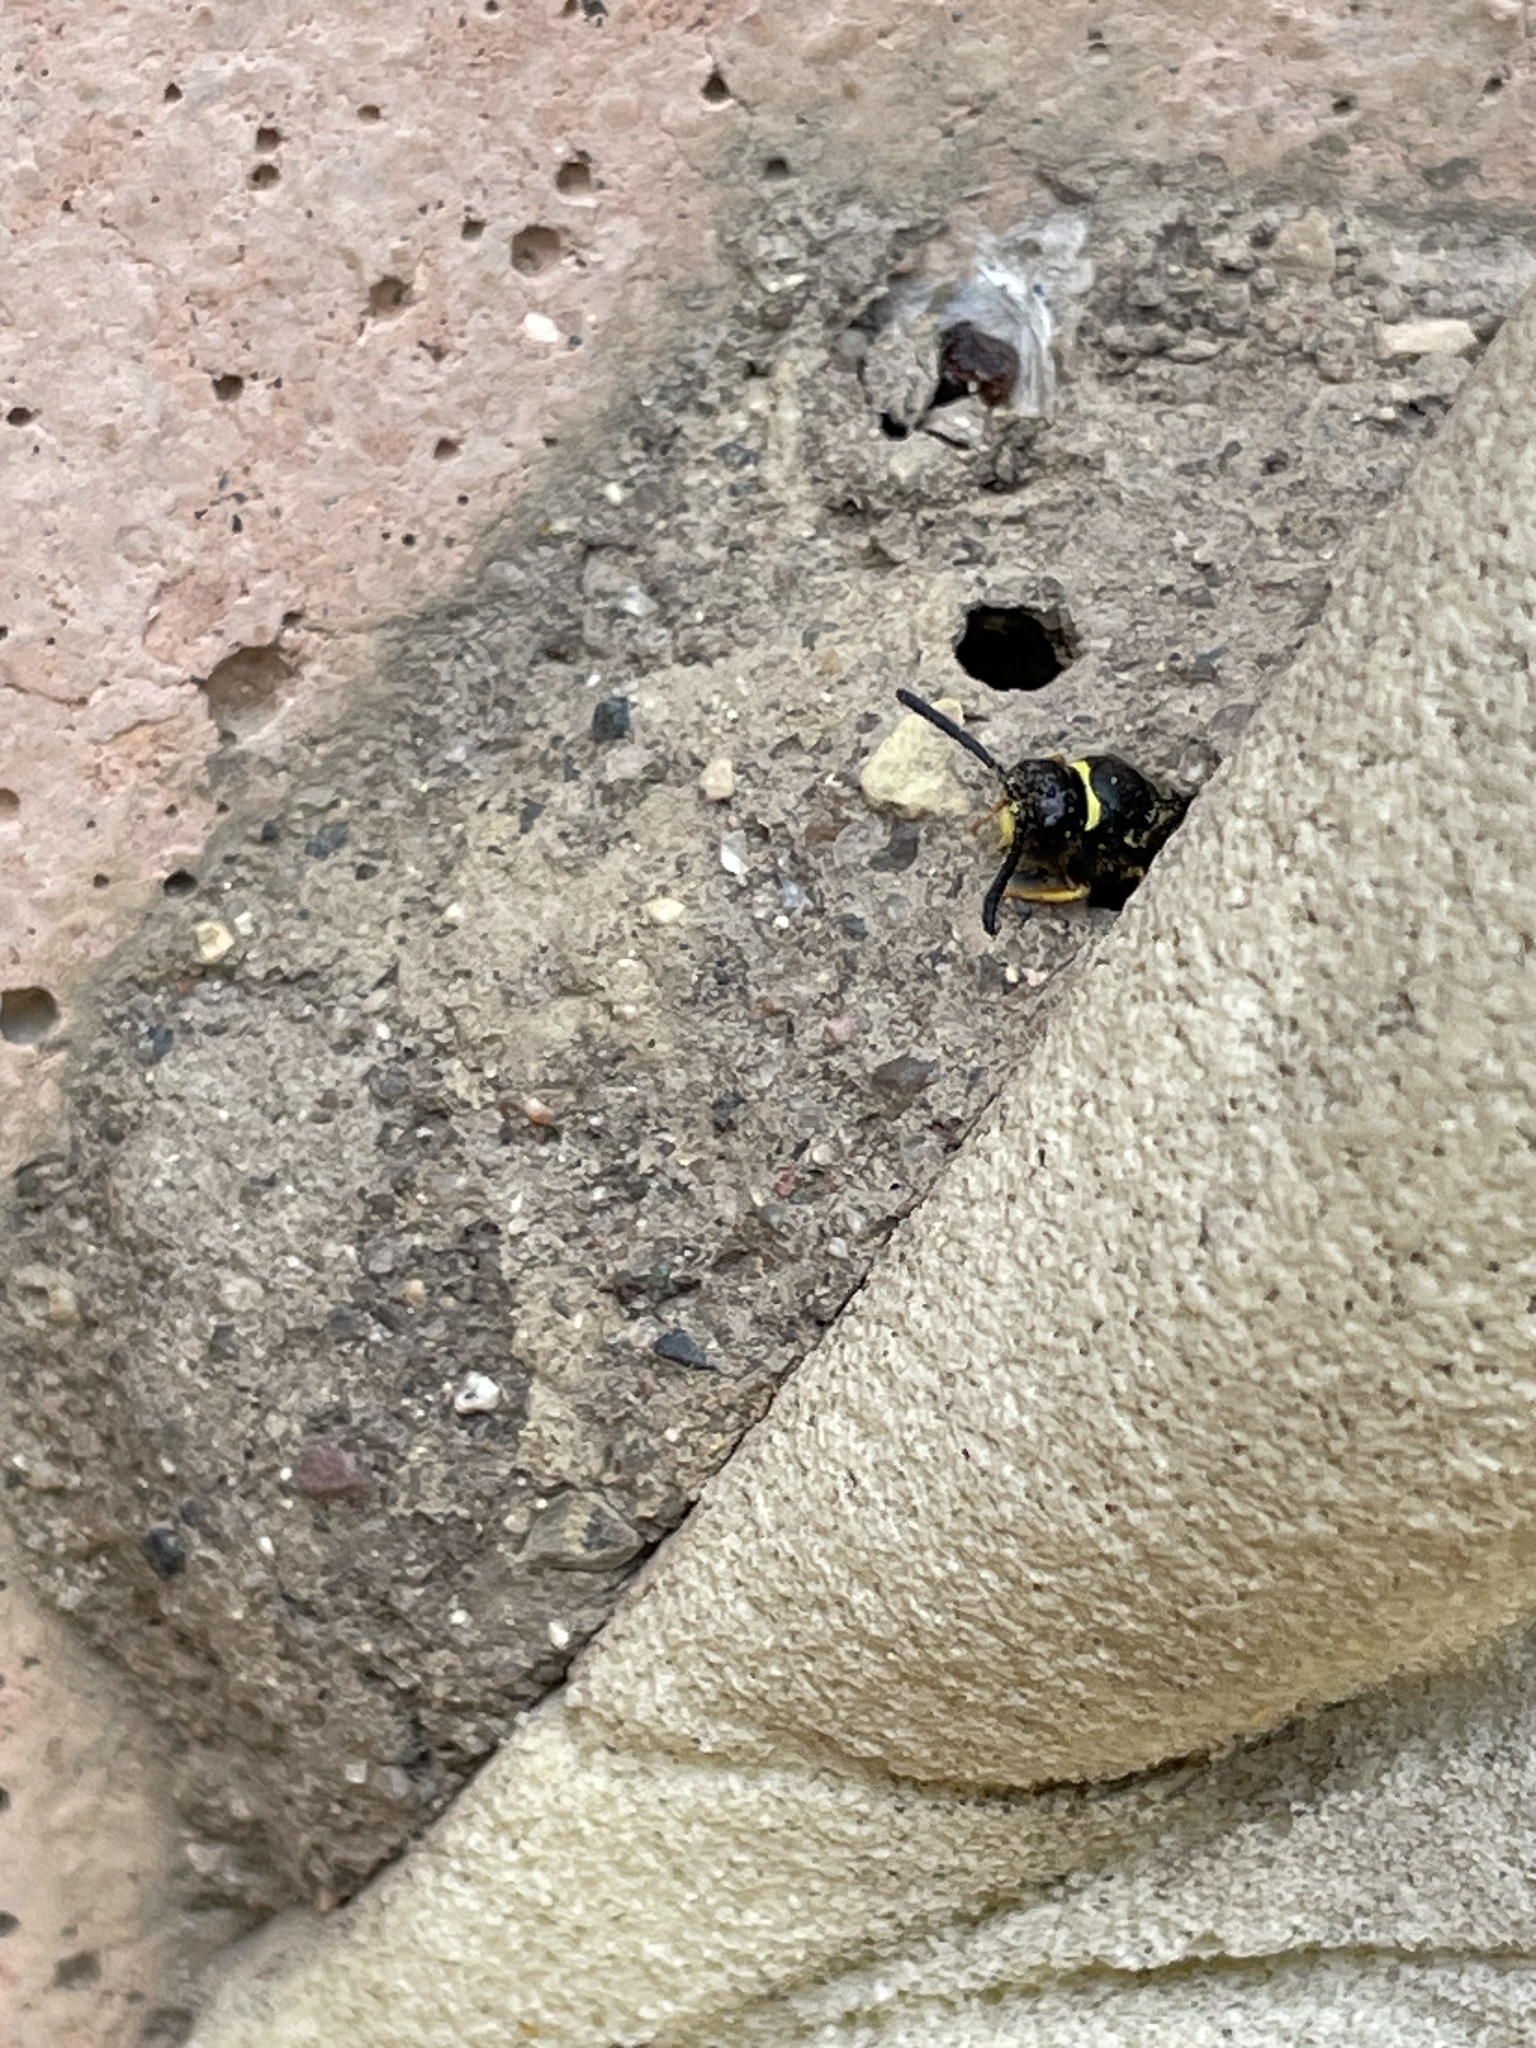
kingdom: Animalia
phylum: Arthropoda
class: Insecta
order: Hymenoptera
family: Vespidae
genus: Ancistrocerus
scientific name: Ancistrocerus
